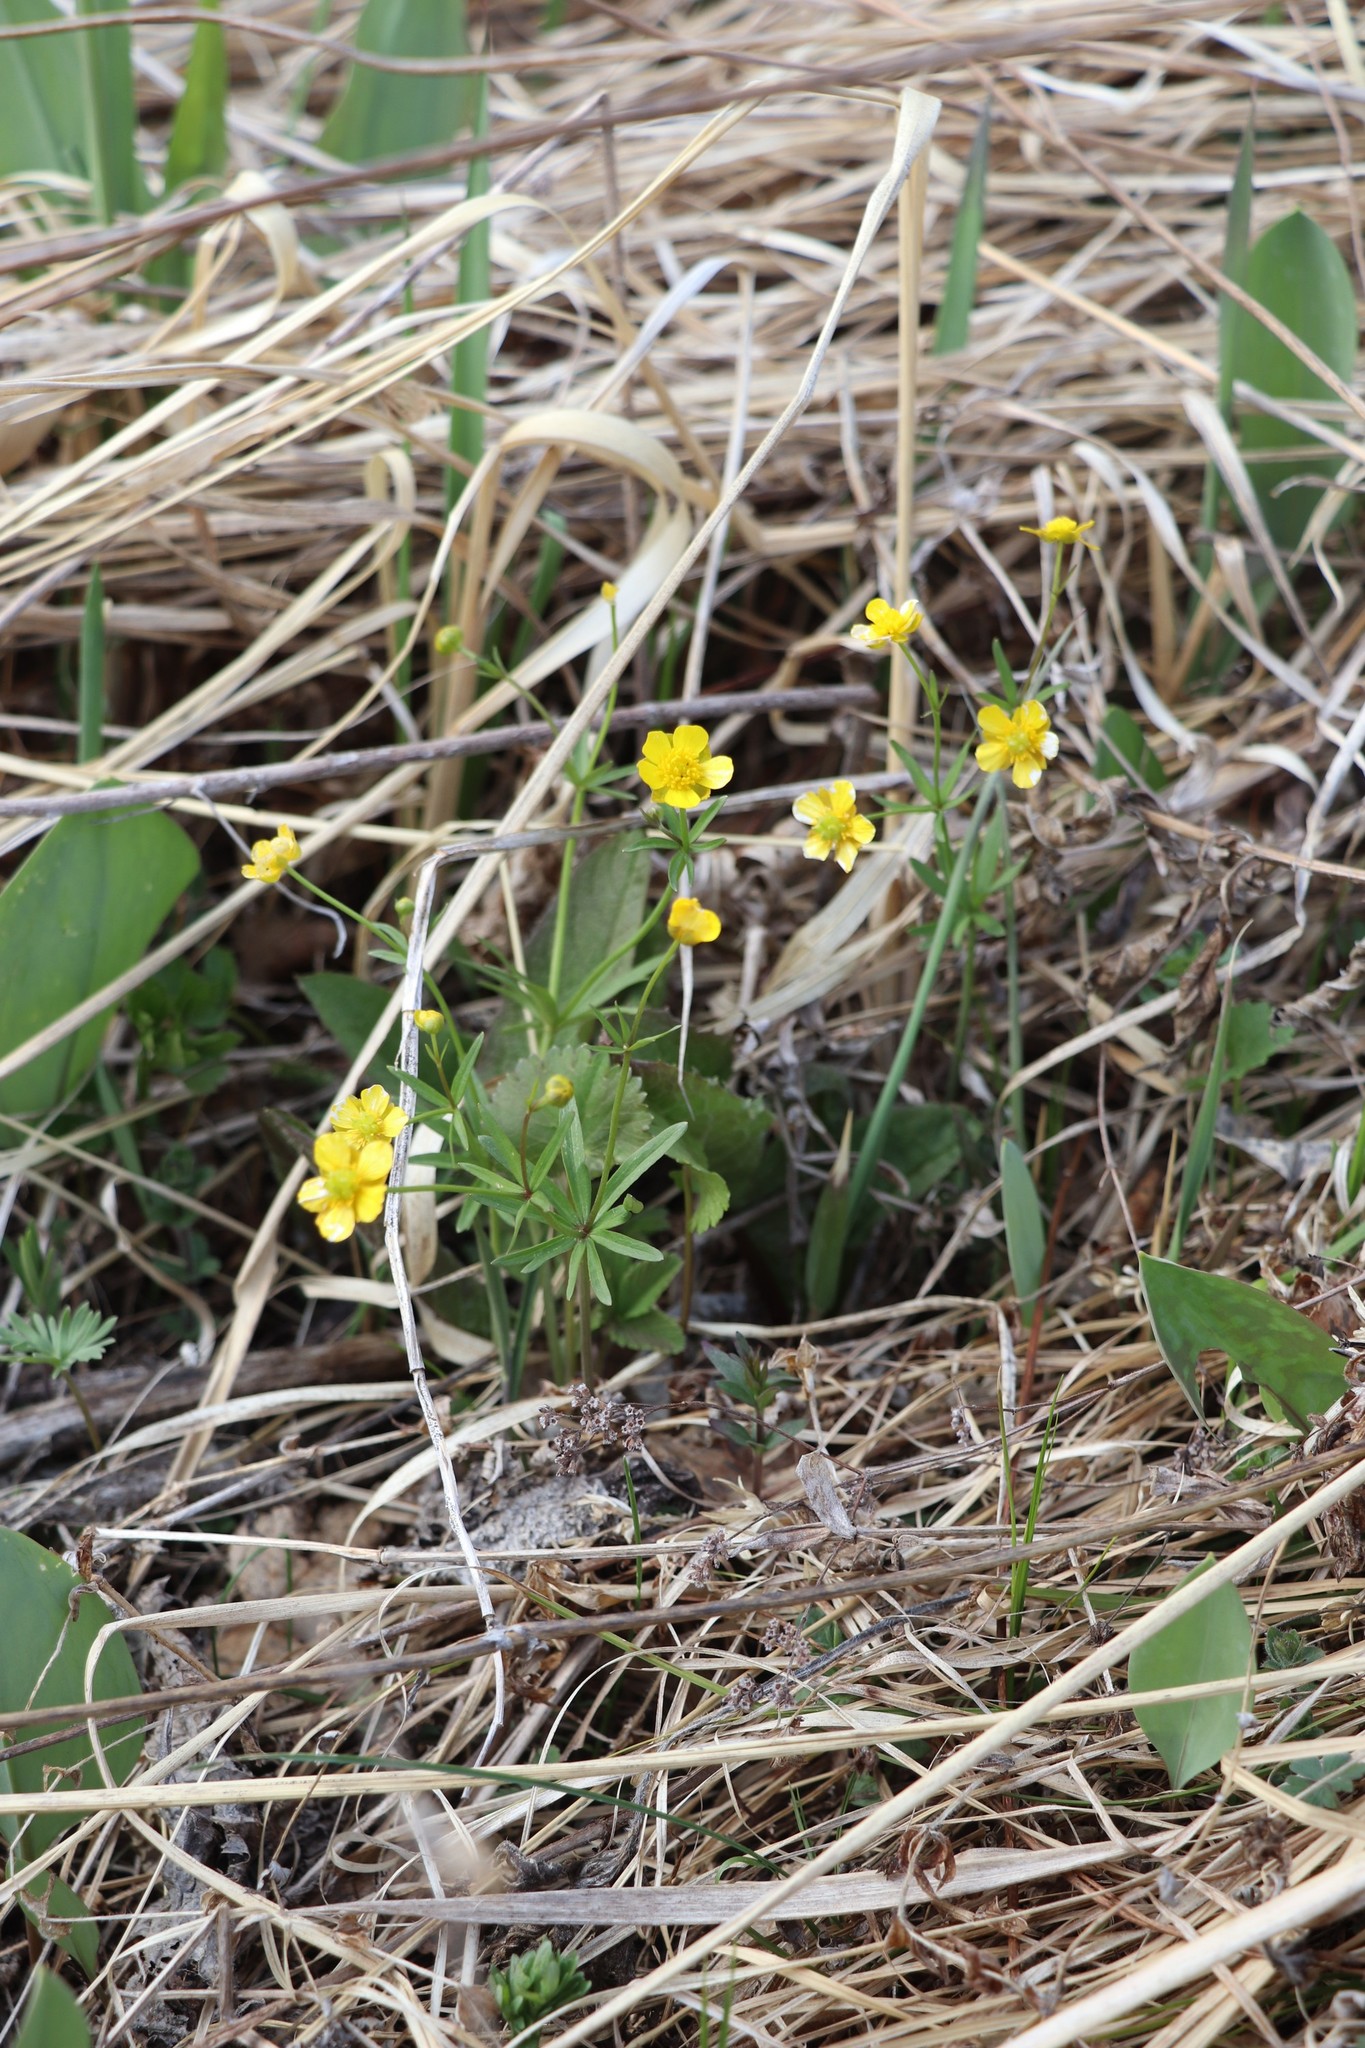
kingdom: Plantae
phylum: Tracheophyta
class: Magnoliopsida
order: Ranunculales
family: Ranunculaceae
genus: Ranunculus
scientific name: Ranunculus monophyllus
